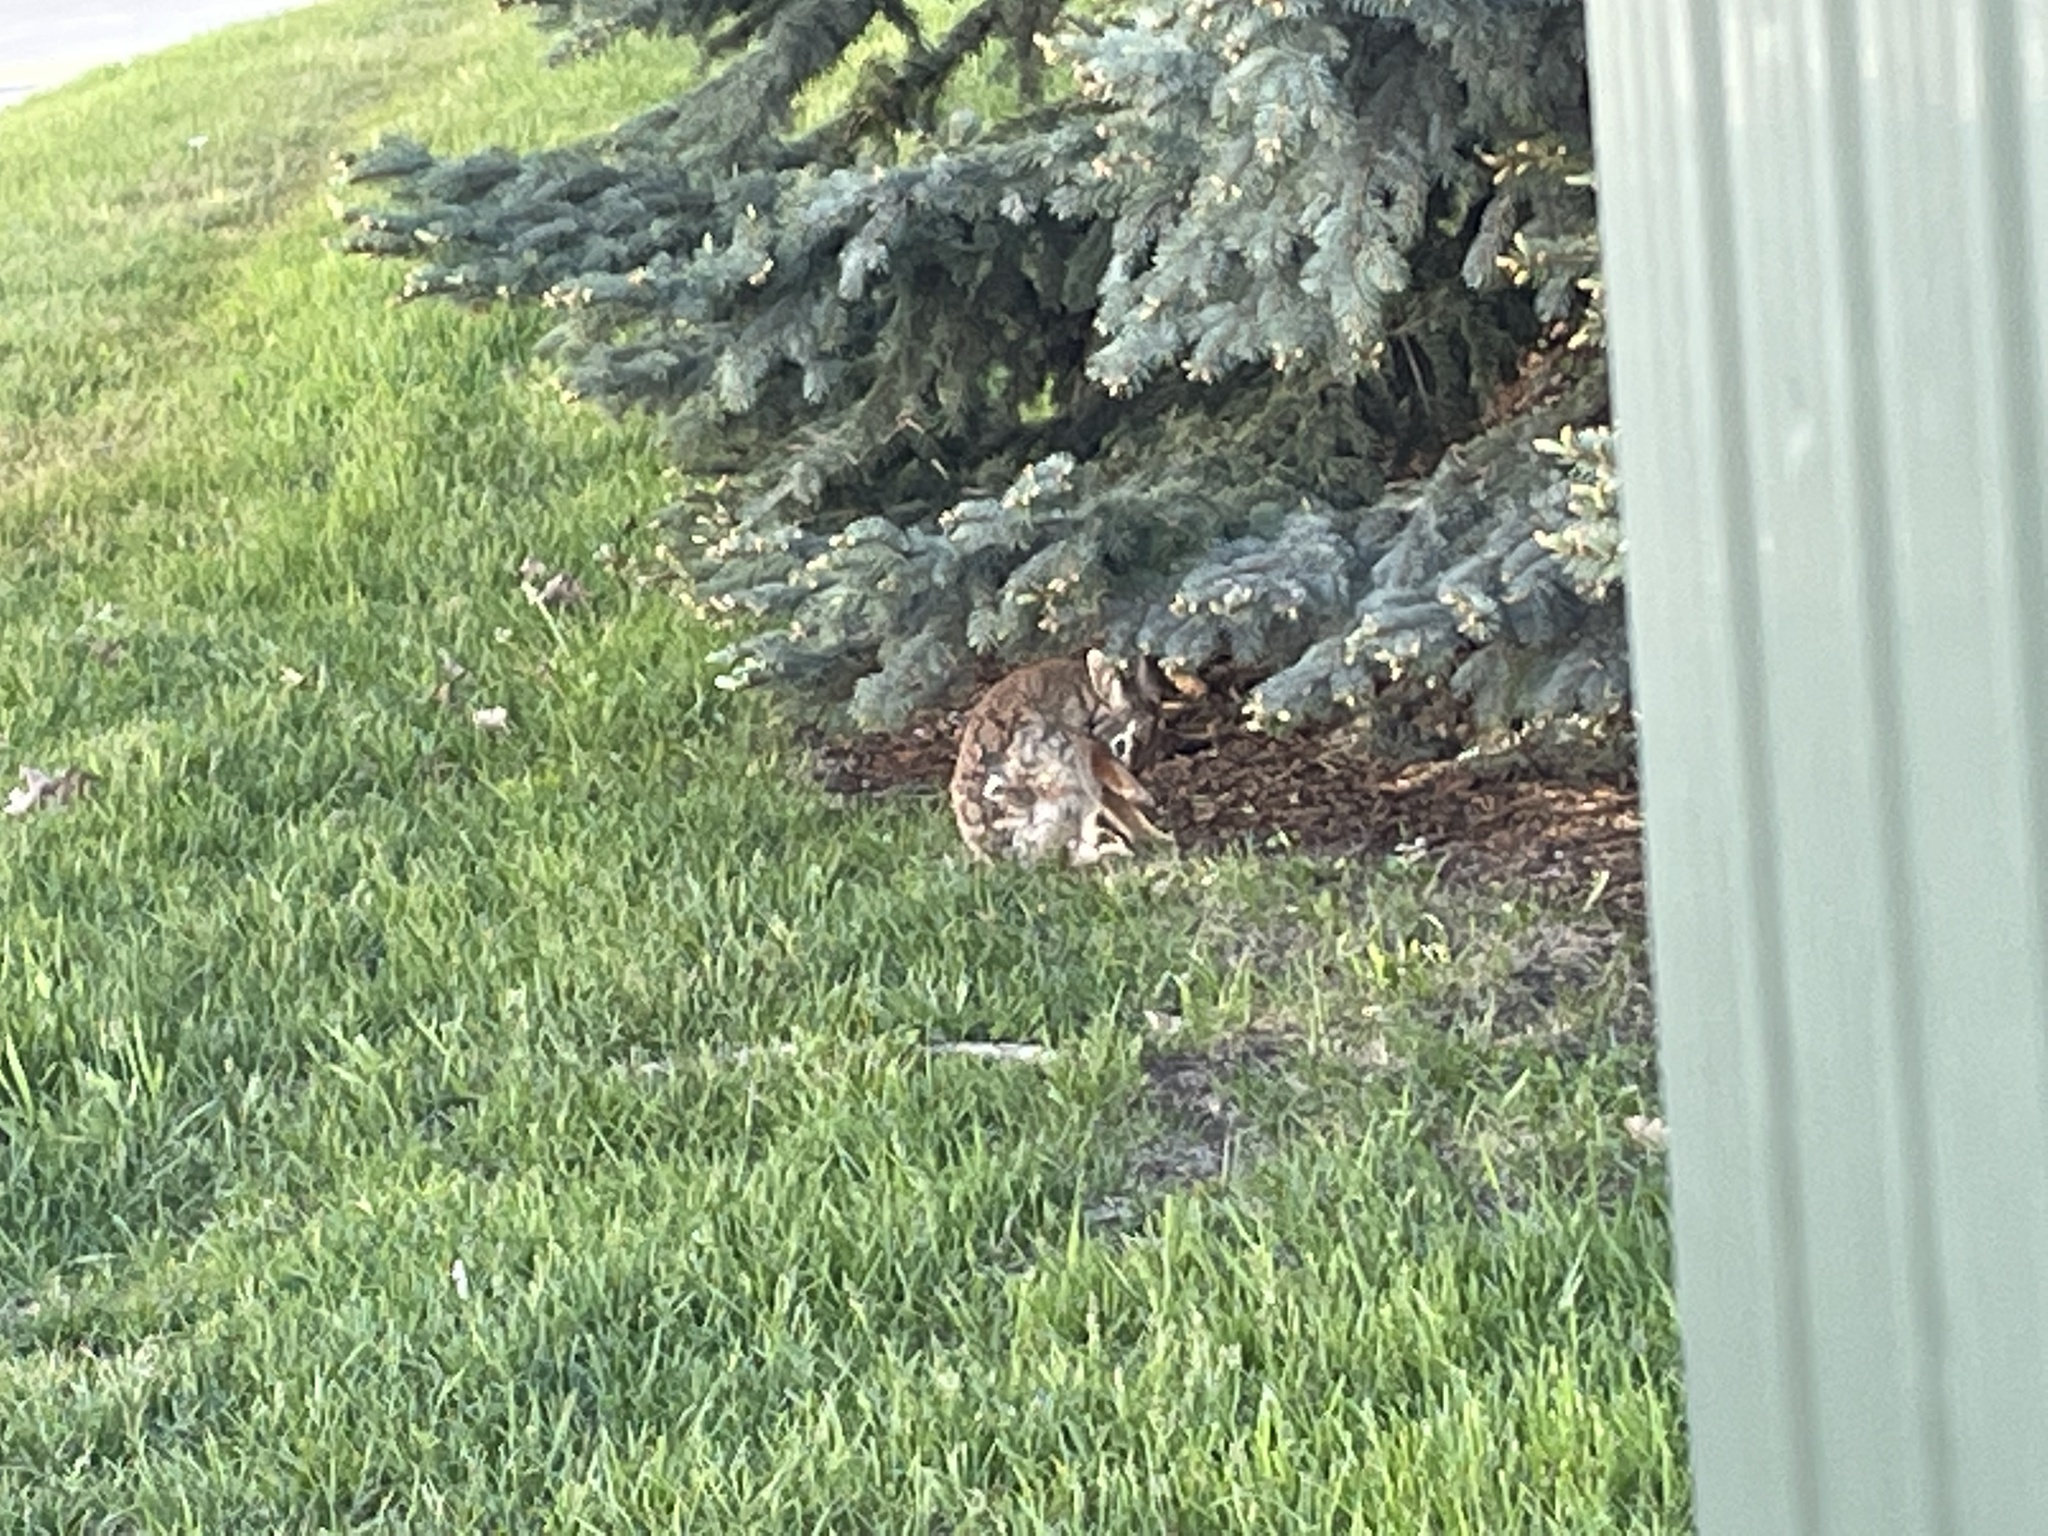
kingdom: Animalia
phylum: Chordata
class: Mammalia
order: Lagomorpha
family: Leporidae
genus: Sylvilagus
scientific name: Sylvilagus floridanus
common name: Eastern cottontail
